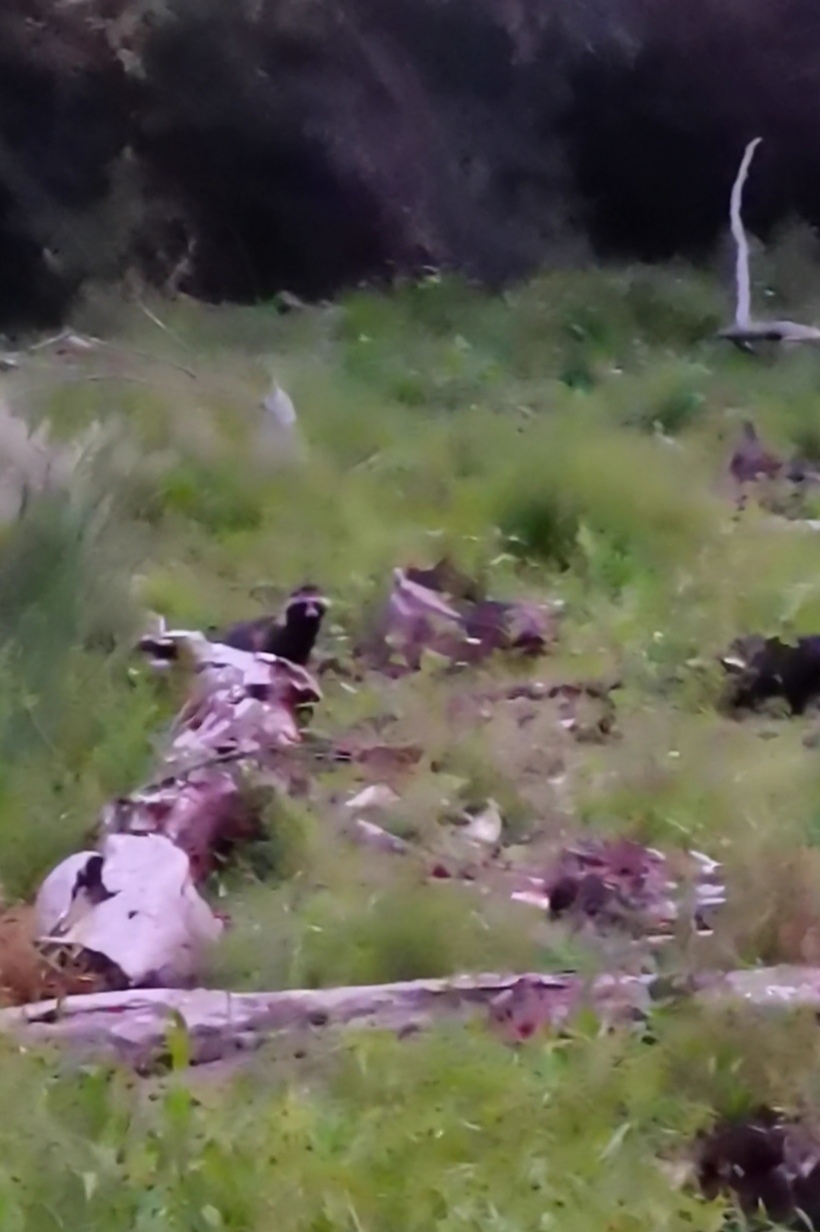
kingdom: Animalia
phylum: Chordata
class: Mammalia
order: Carnivora
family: Canidae
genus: Nyctereutes
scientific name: Nyctereutes procyonoides
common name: Raccoon dog
